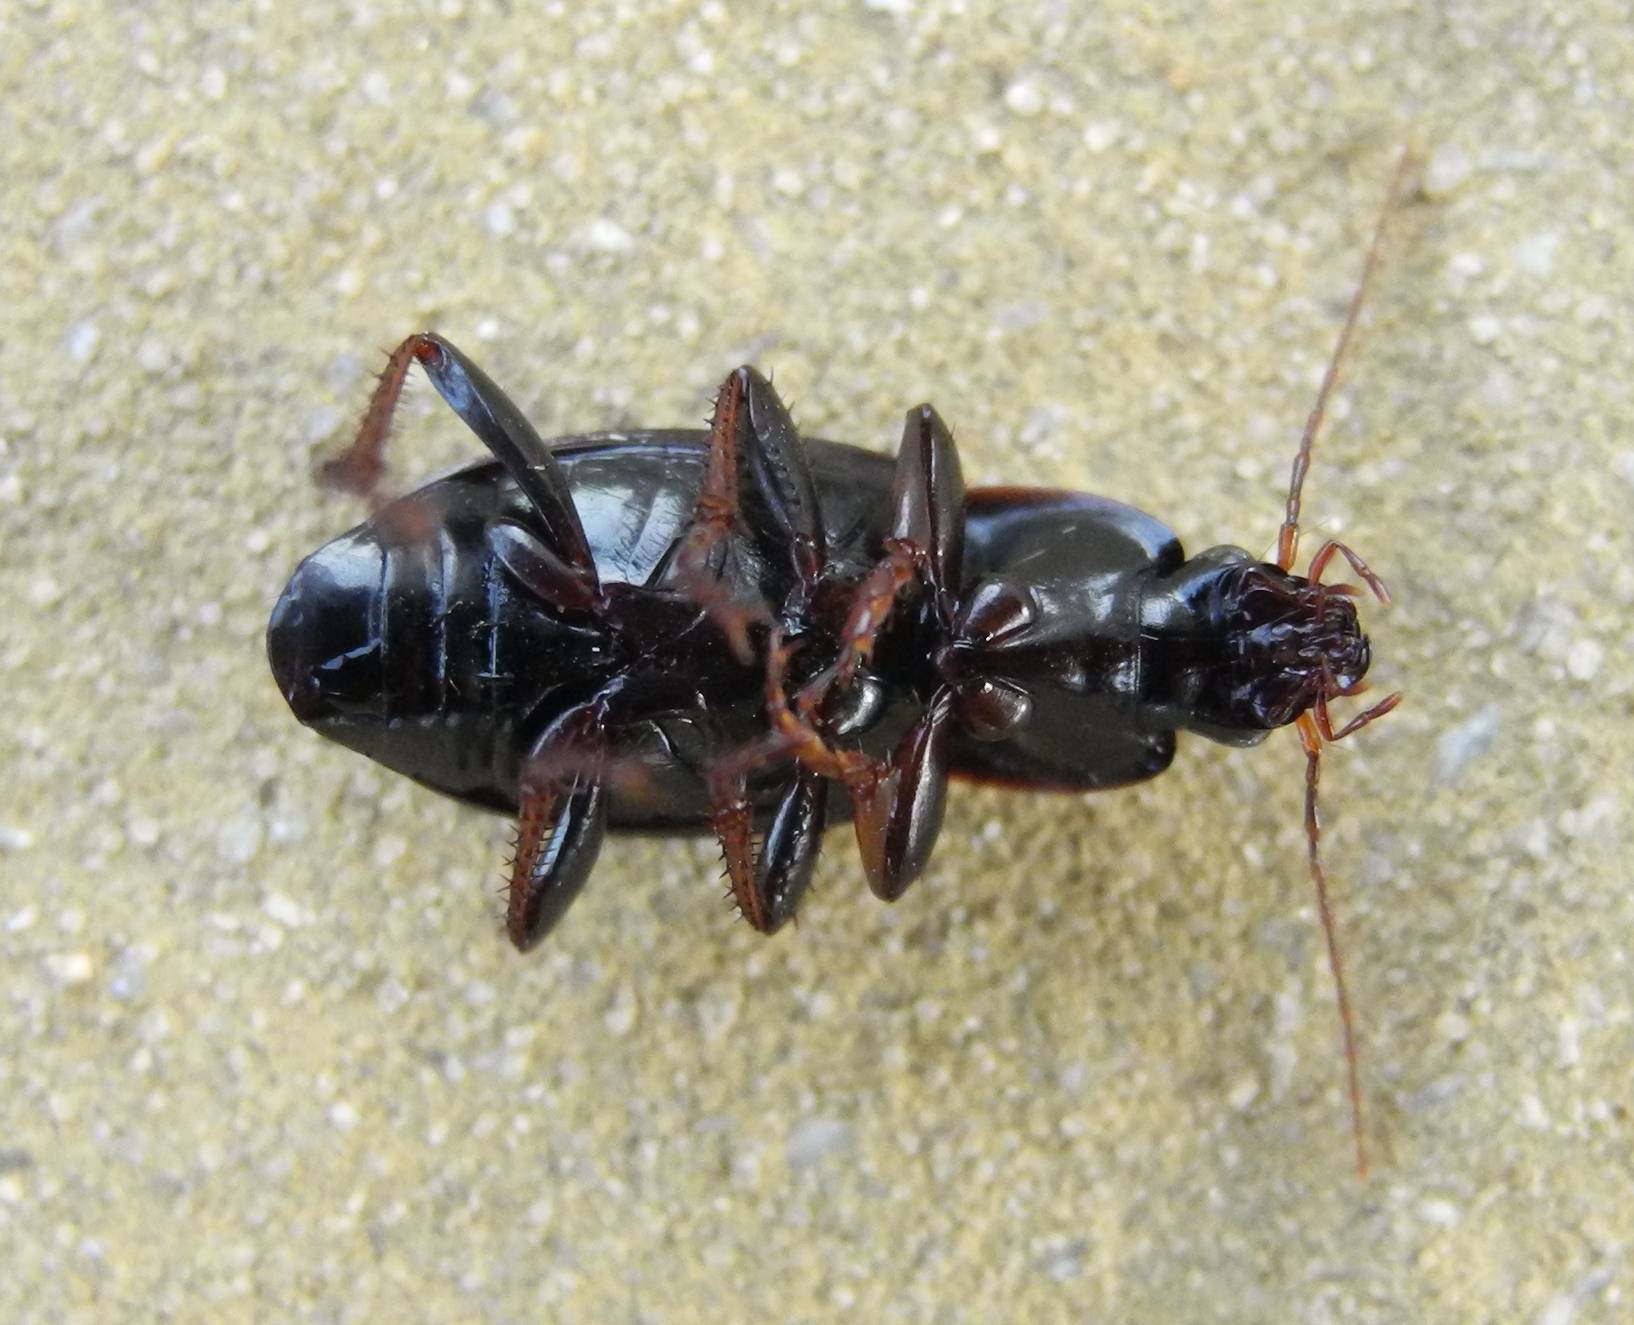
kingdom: Animalia
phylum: Arthropoda
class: Insecta
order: Coleoptera
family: Carabidae
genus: Calathus
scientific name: Calathus fuscipes
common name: Dark-footed harp ground beetle
